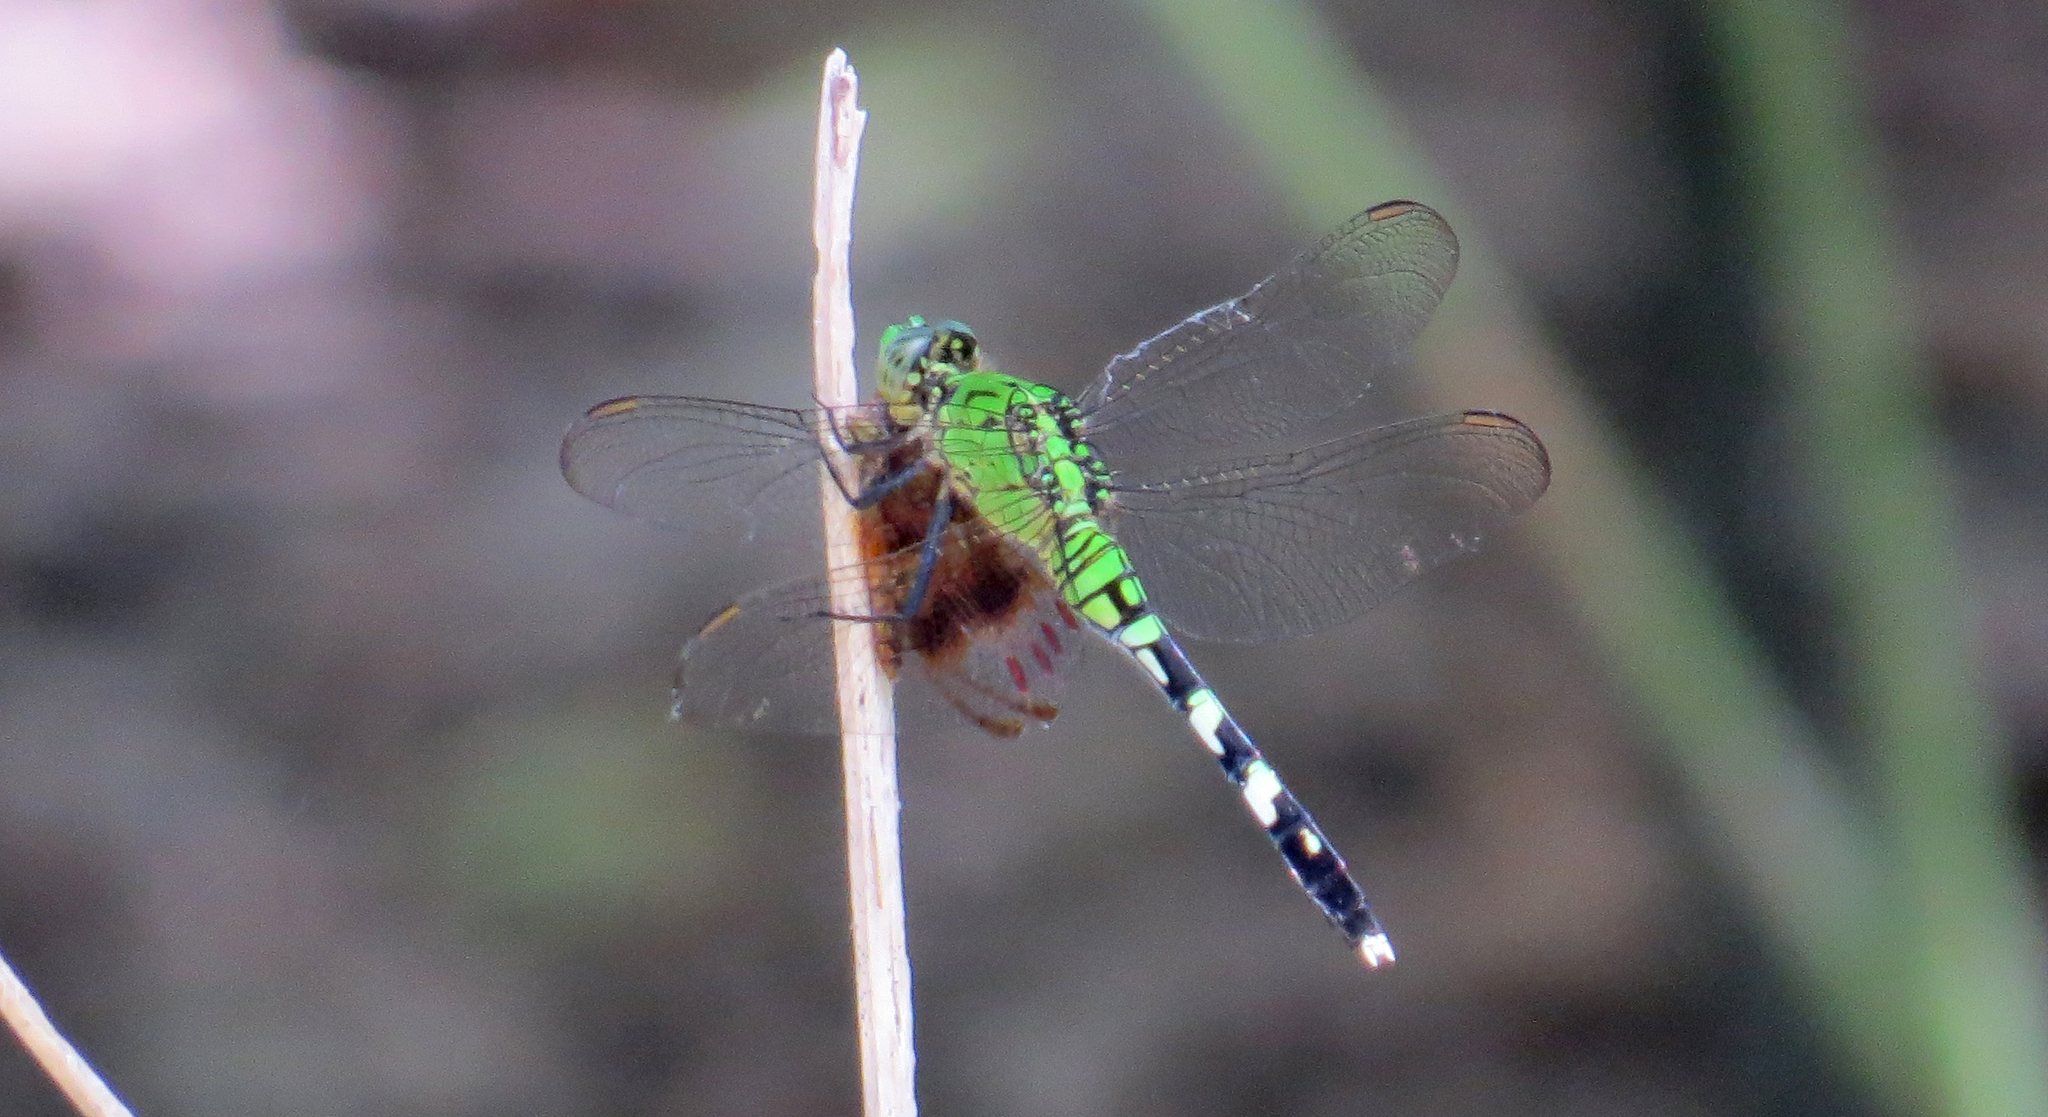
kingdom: Animalia
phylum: Arthropoda
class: Insecta
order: Odonata
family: Libellulidae
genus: Erythemis
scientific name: Erythemis simplicicollis
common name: Eastern pondhawk
